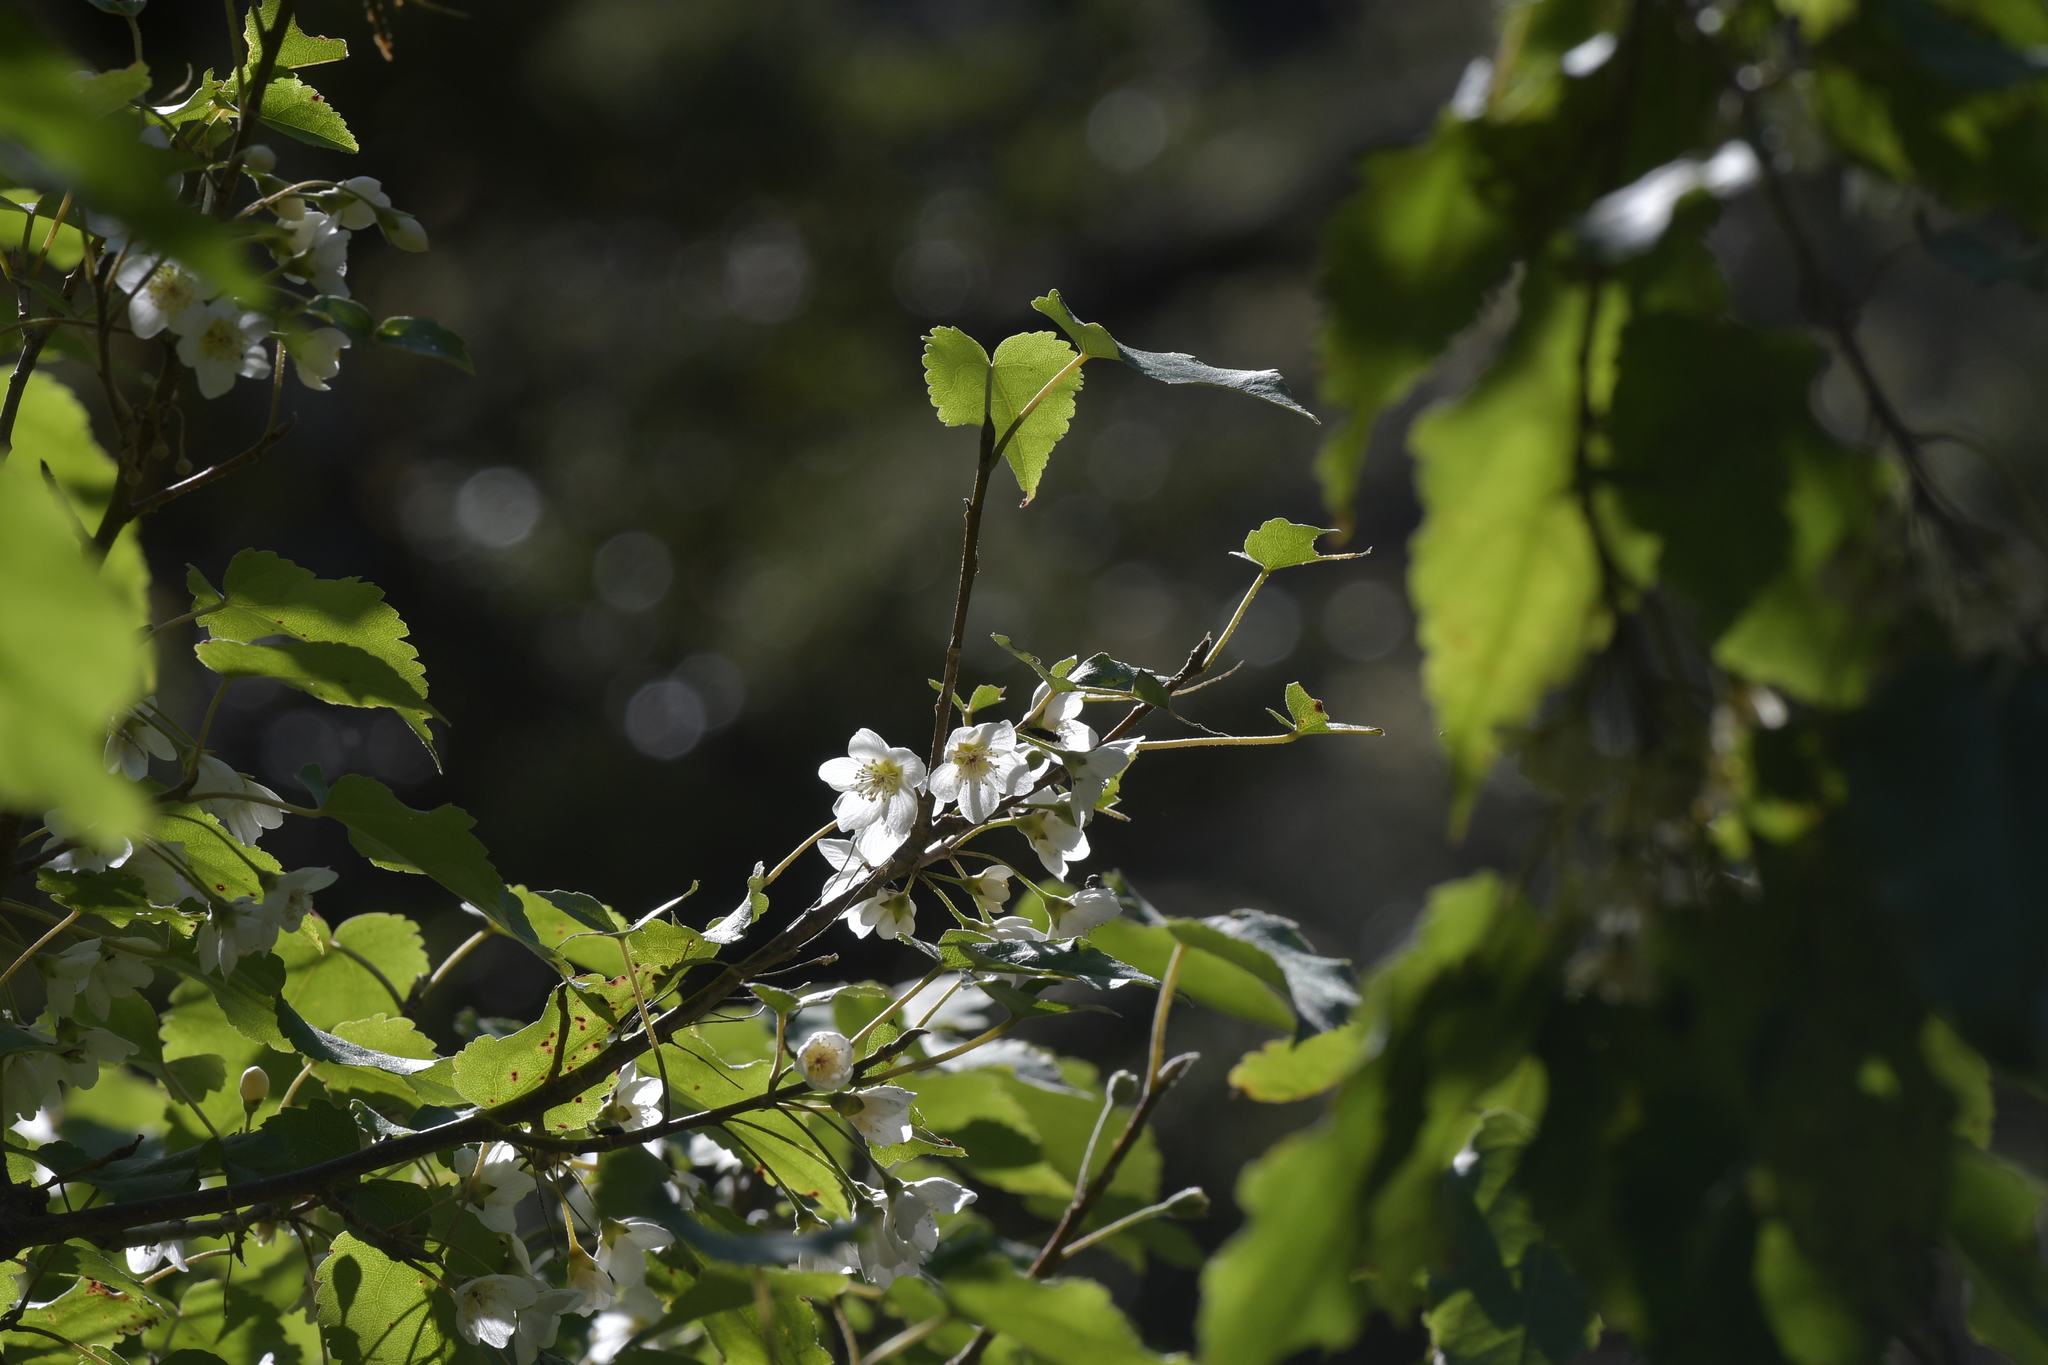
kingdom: Plantae
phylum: Tracheophyta
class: Magnoliopsida
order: Malvales
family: Malvaceae
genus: Hoheria
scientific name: Hoheria glabrata
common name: Mountain-ribbon
